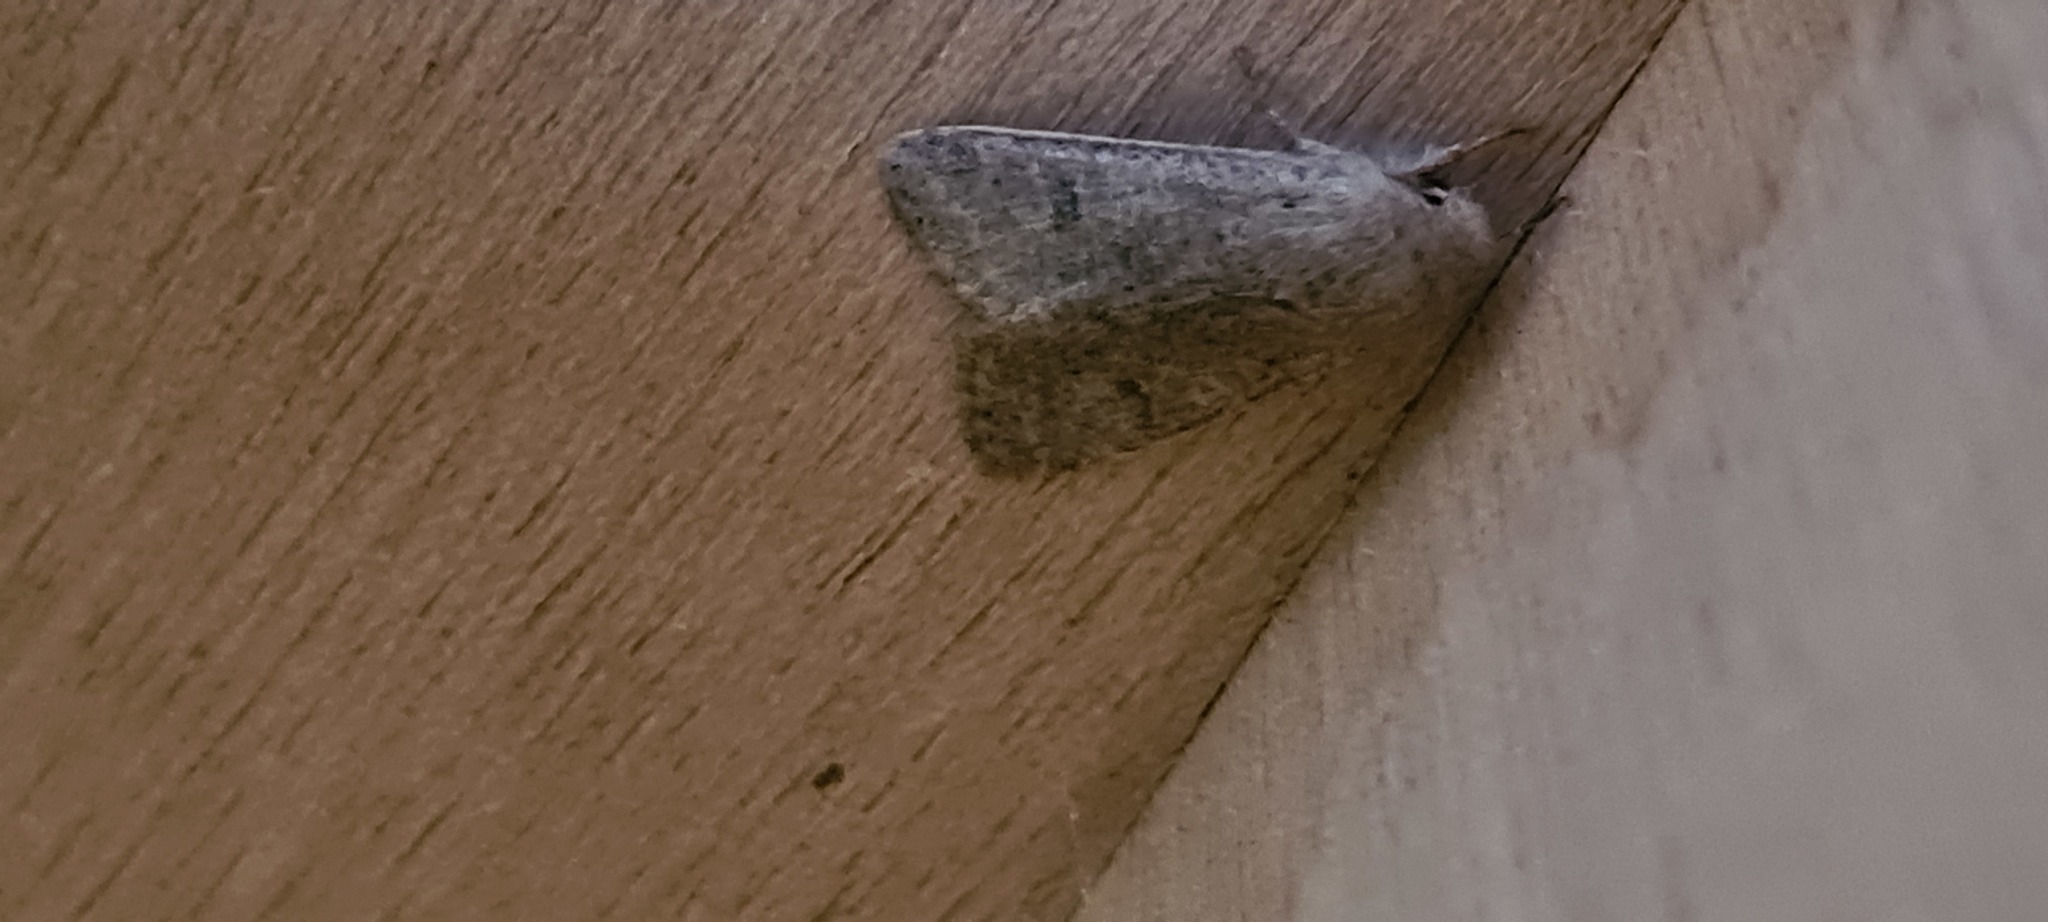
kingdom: Animalia
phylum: Arthropoda
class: Insecta
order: Lepidoptera
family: Noctuidae
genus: Orthosia
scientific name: Orthosia cruda
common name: Small quaker
